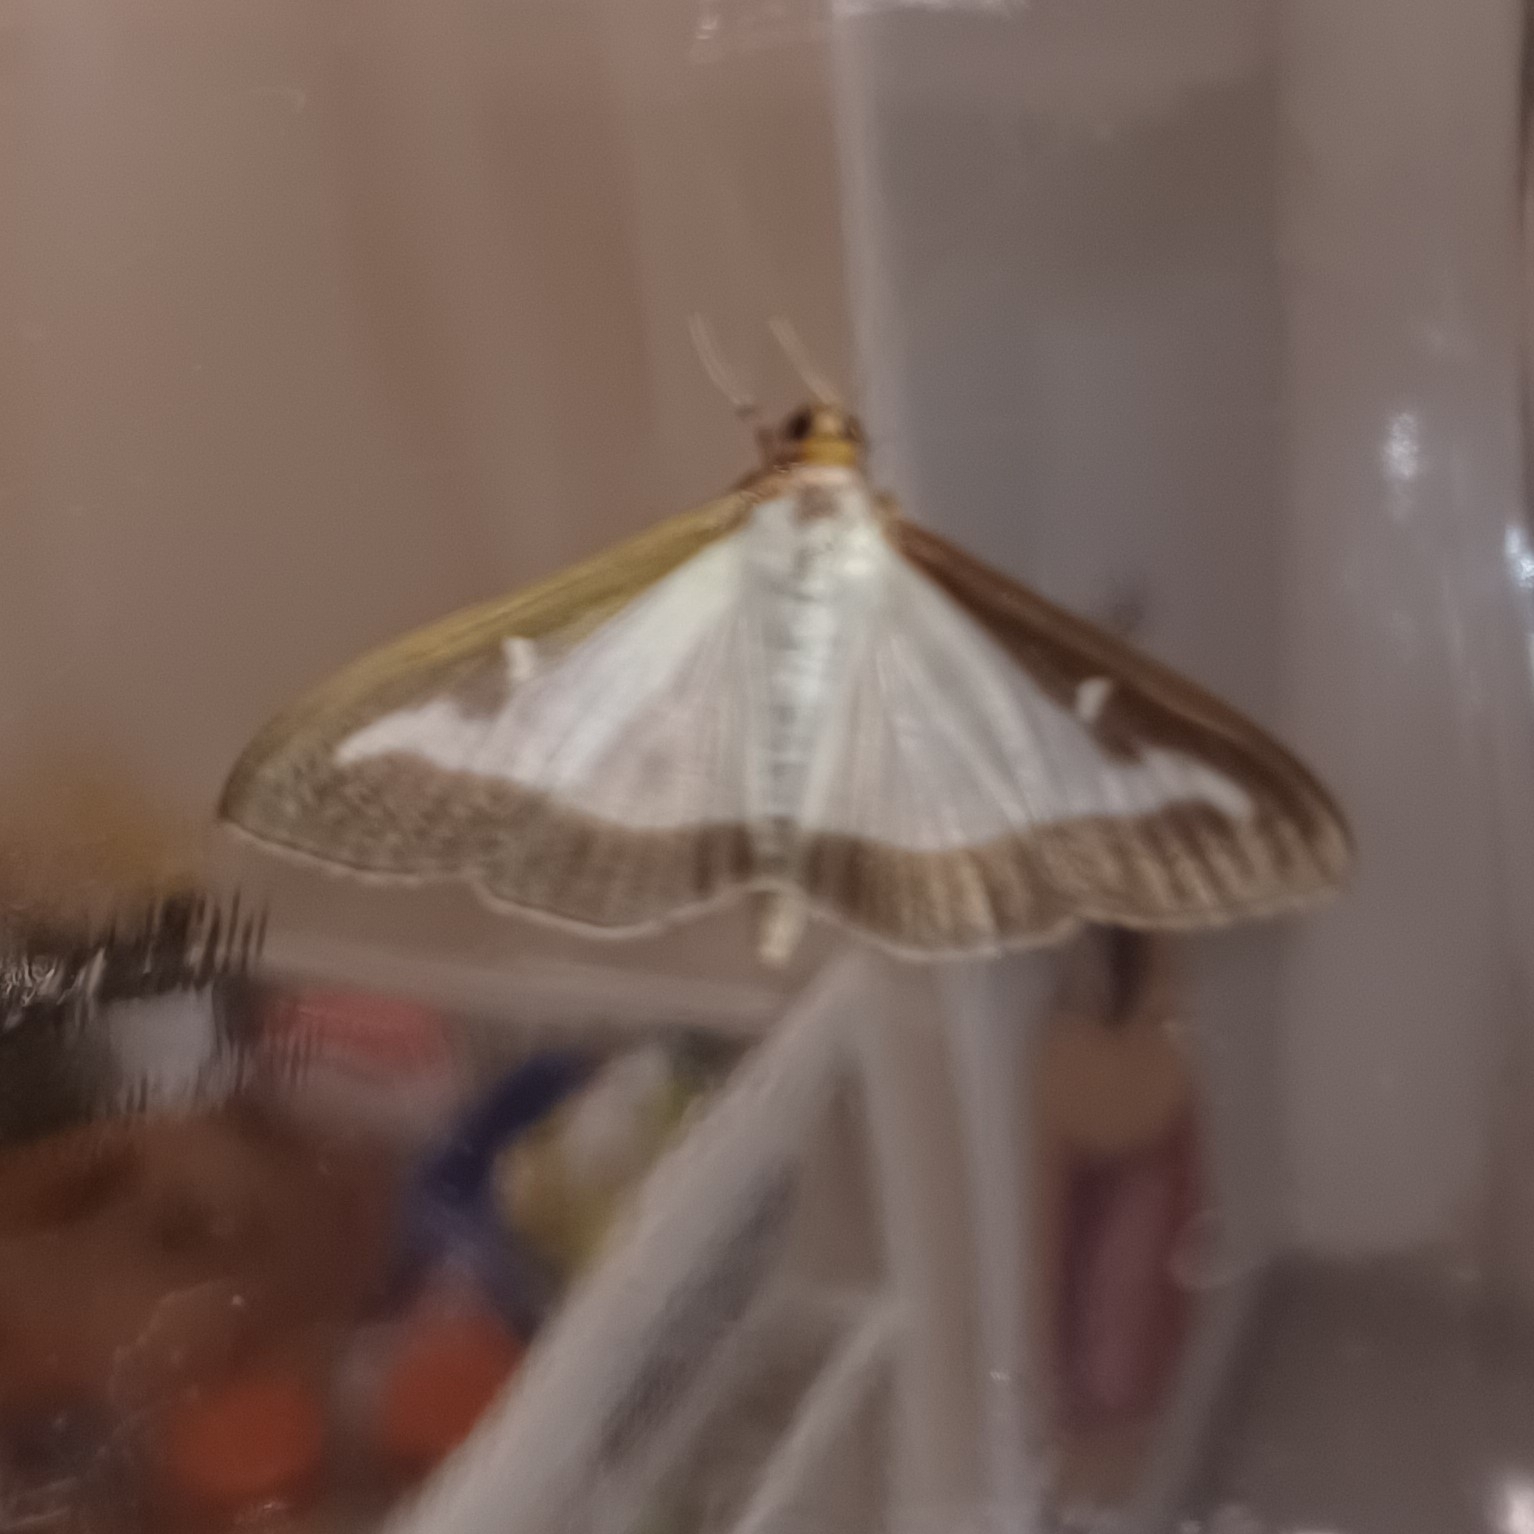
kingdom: Animalia
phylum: Arthropoda
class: Insecta
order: Lepidoptera
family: Crambidae
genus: Cydalima
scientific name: Cydalima perspectalis
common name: Box tree moth
